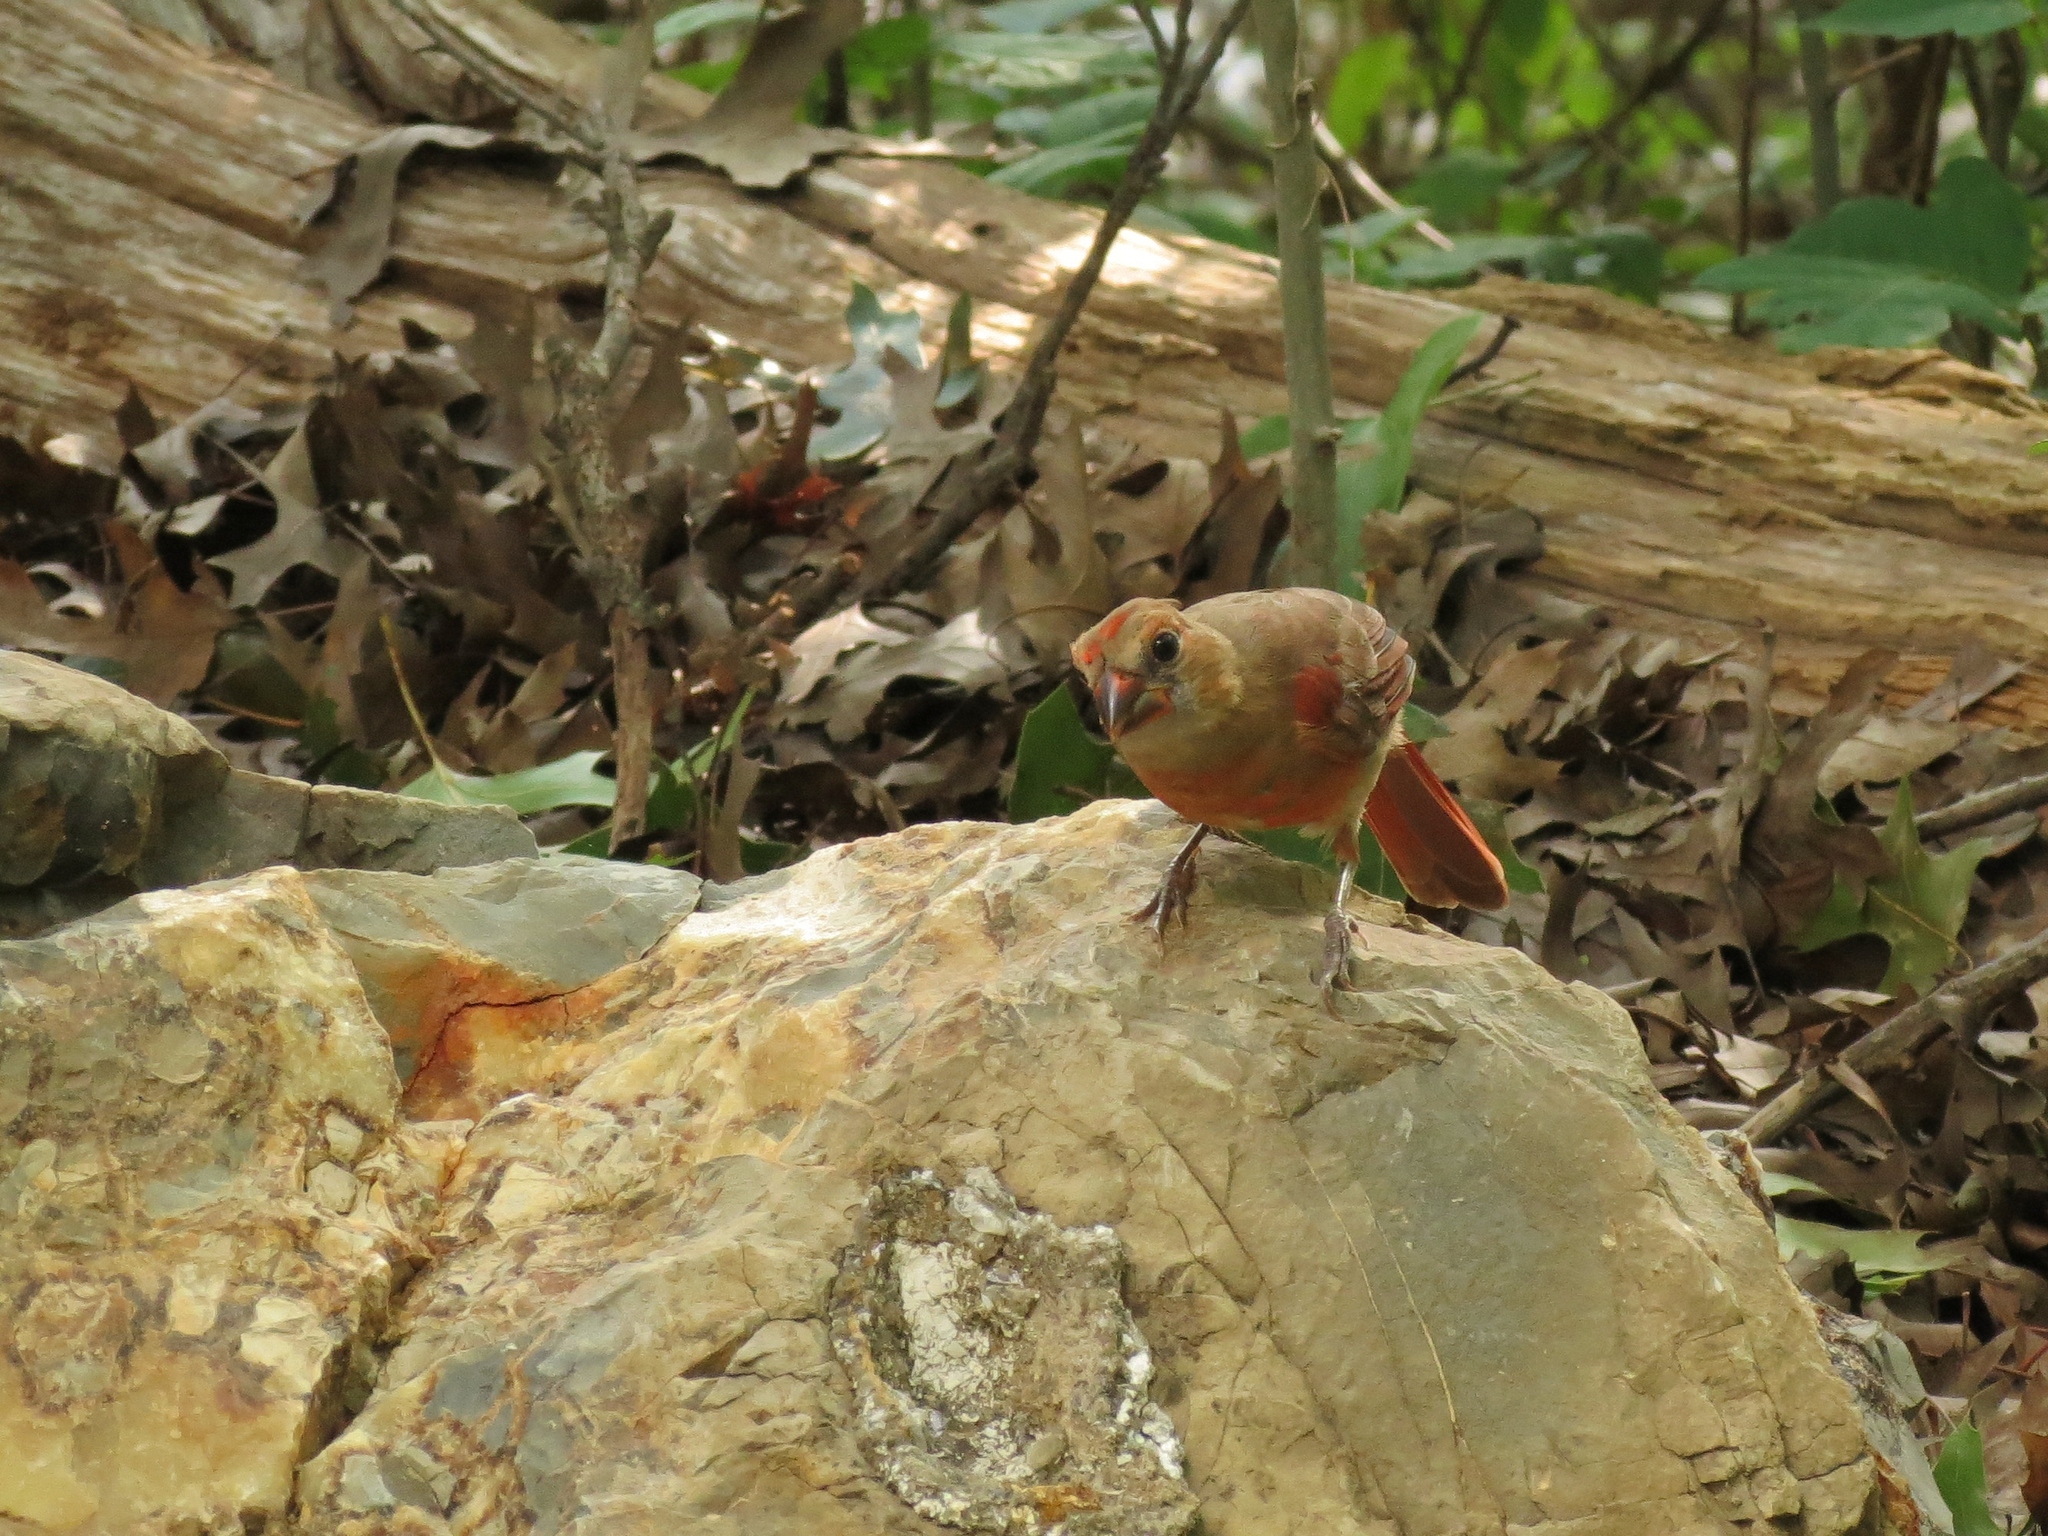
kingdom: Animalia
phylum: Chordata
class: Aves
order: Passeriformes
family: Cardinalidae
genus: Cardinalis
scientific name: Cardinalis cardinalis
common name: Northern cardinal
